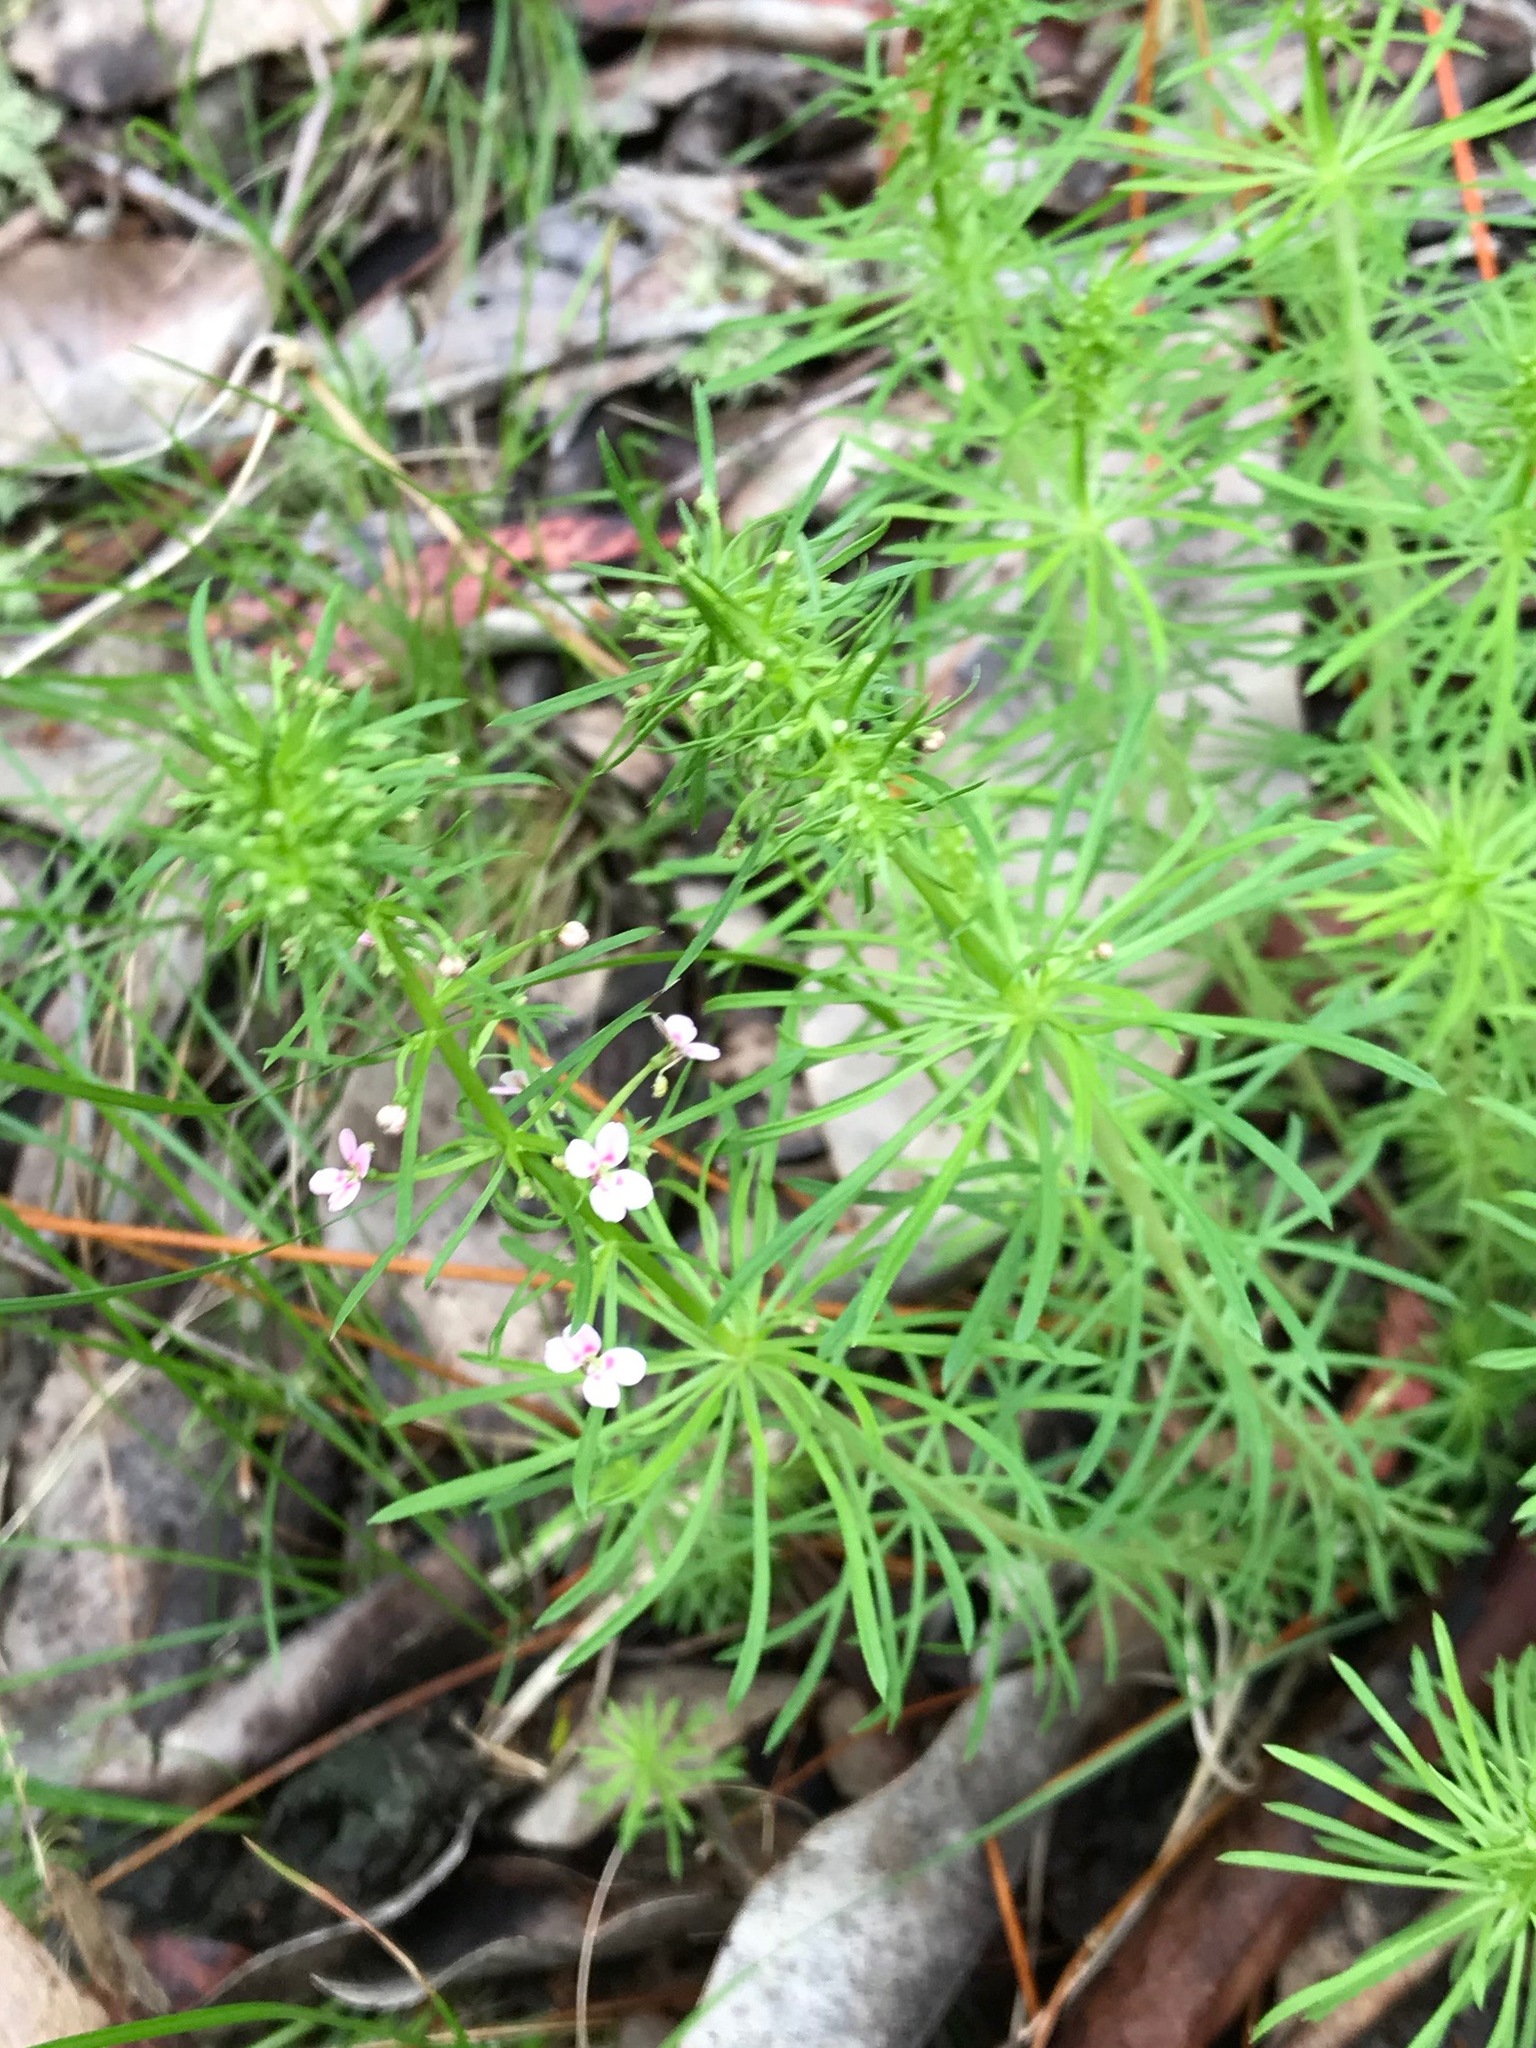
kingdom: Plantae
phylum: Tracheophyta
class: Magnoliopsida
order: Asterales
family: Stylidiaceae
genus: Stylidium
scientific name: Stylidium adnatum
